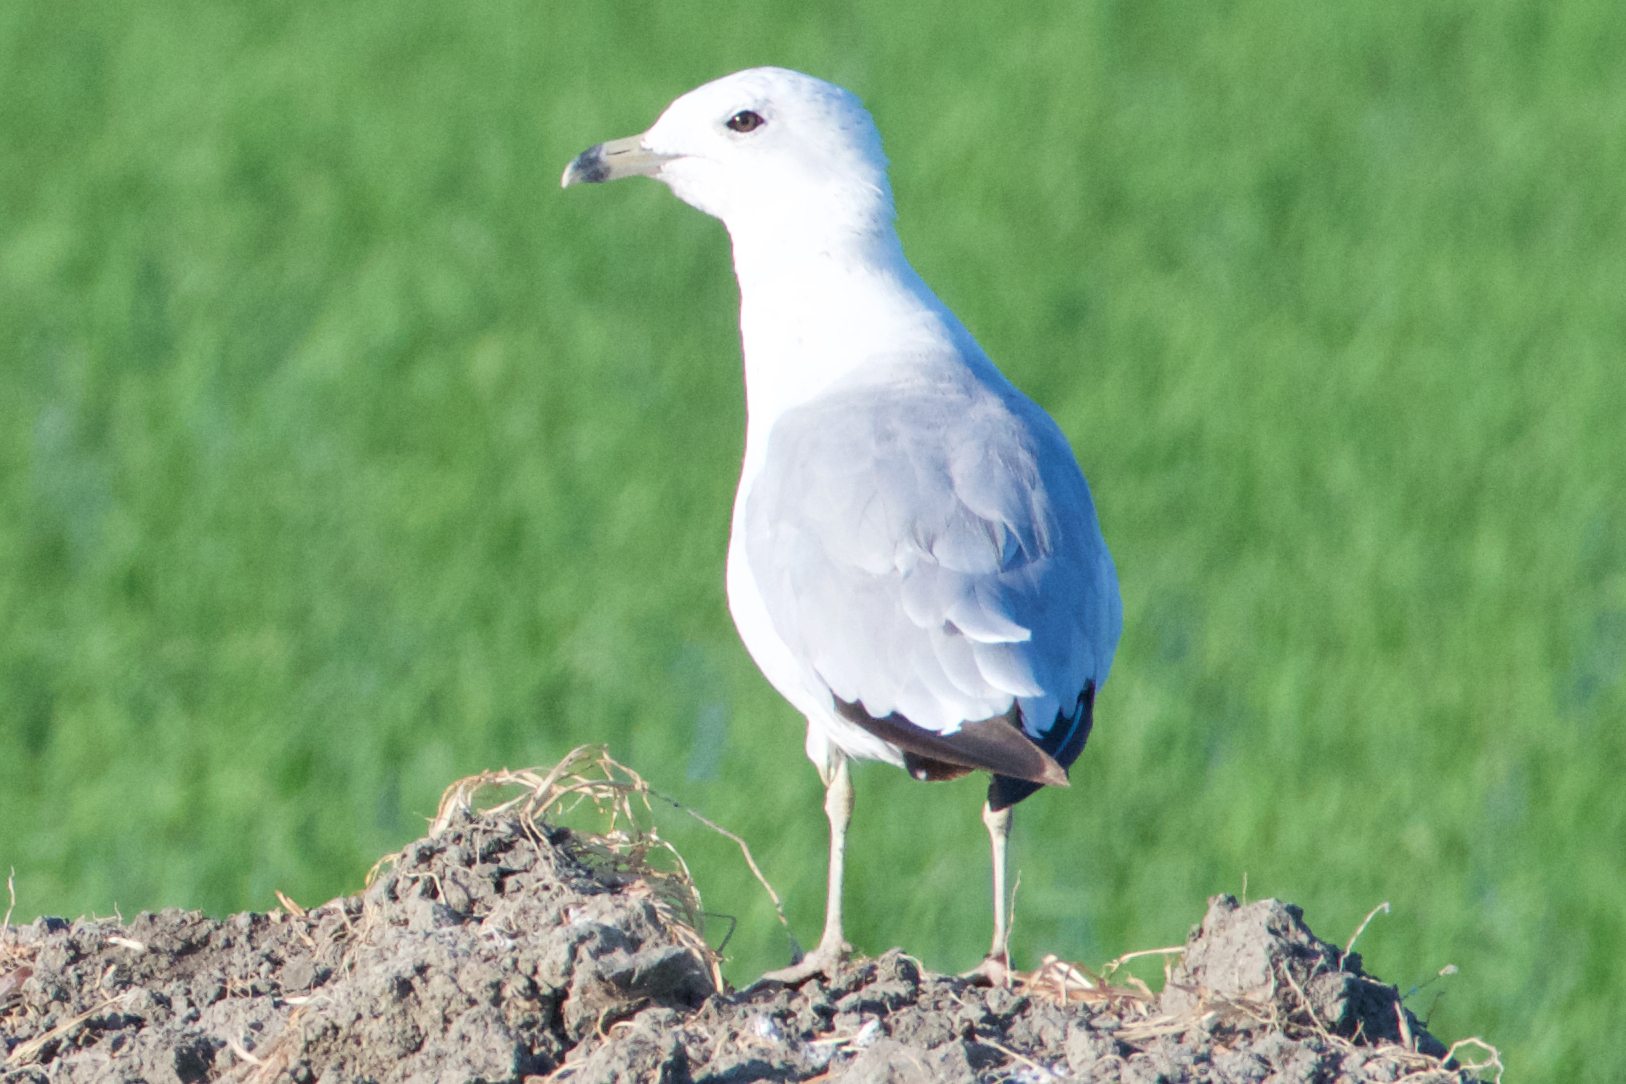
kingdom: Animalia
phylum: Chordata
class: Aves
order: Charadriiformes
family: Laridae
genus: Larus
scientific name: Larus delawarensis
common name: Ring-billed gull
